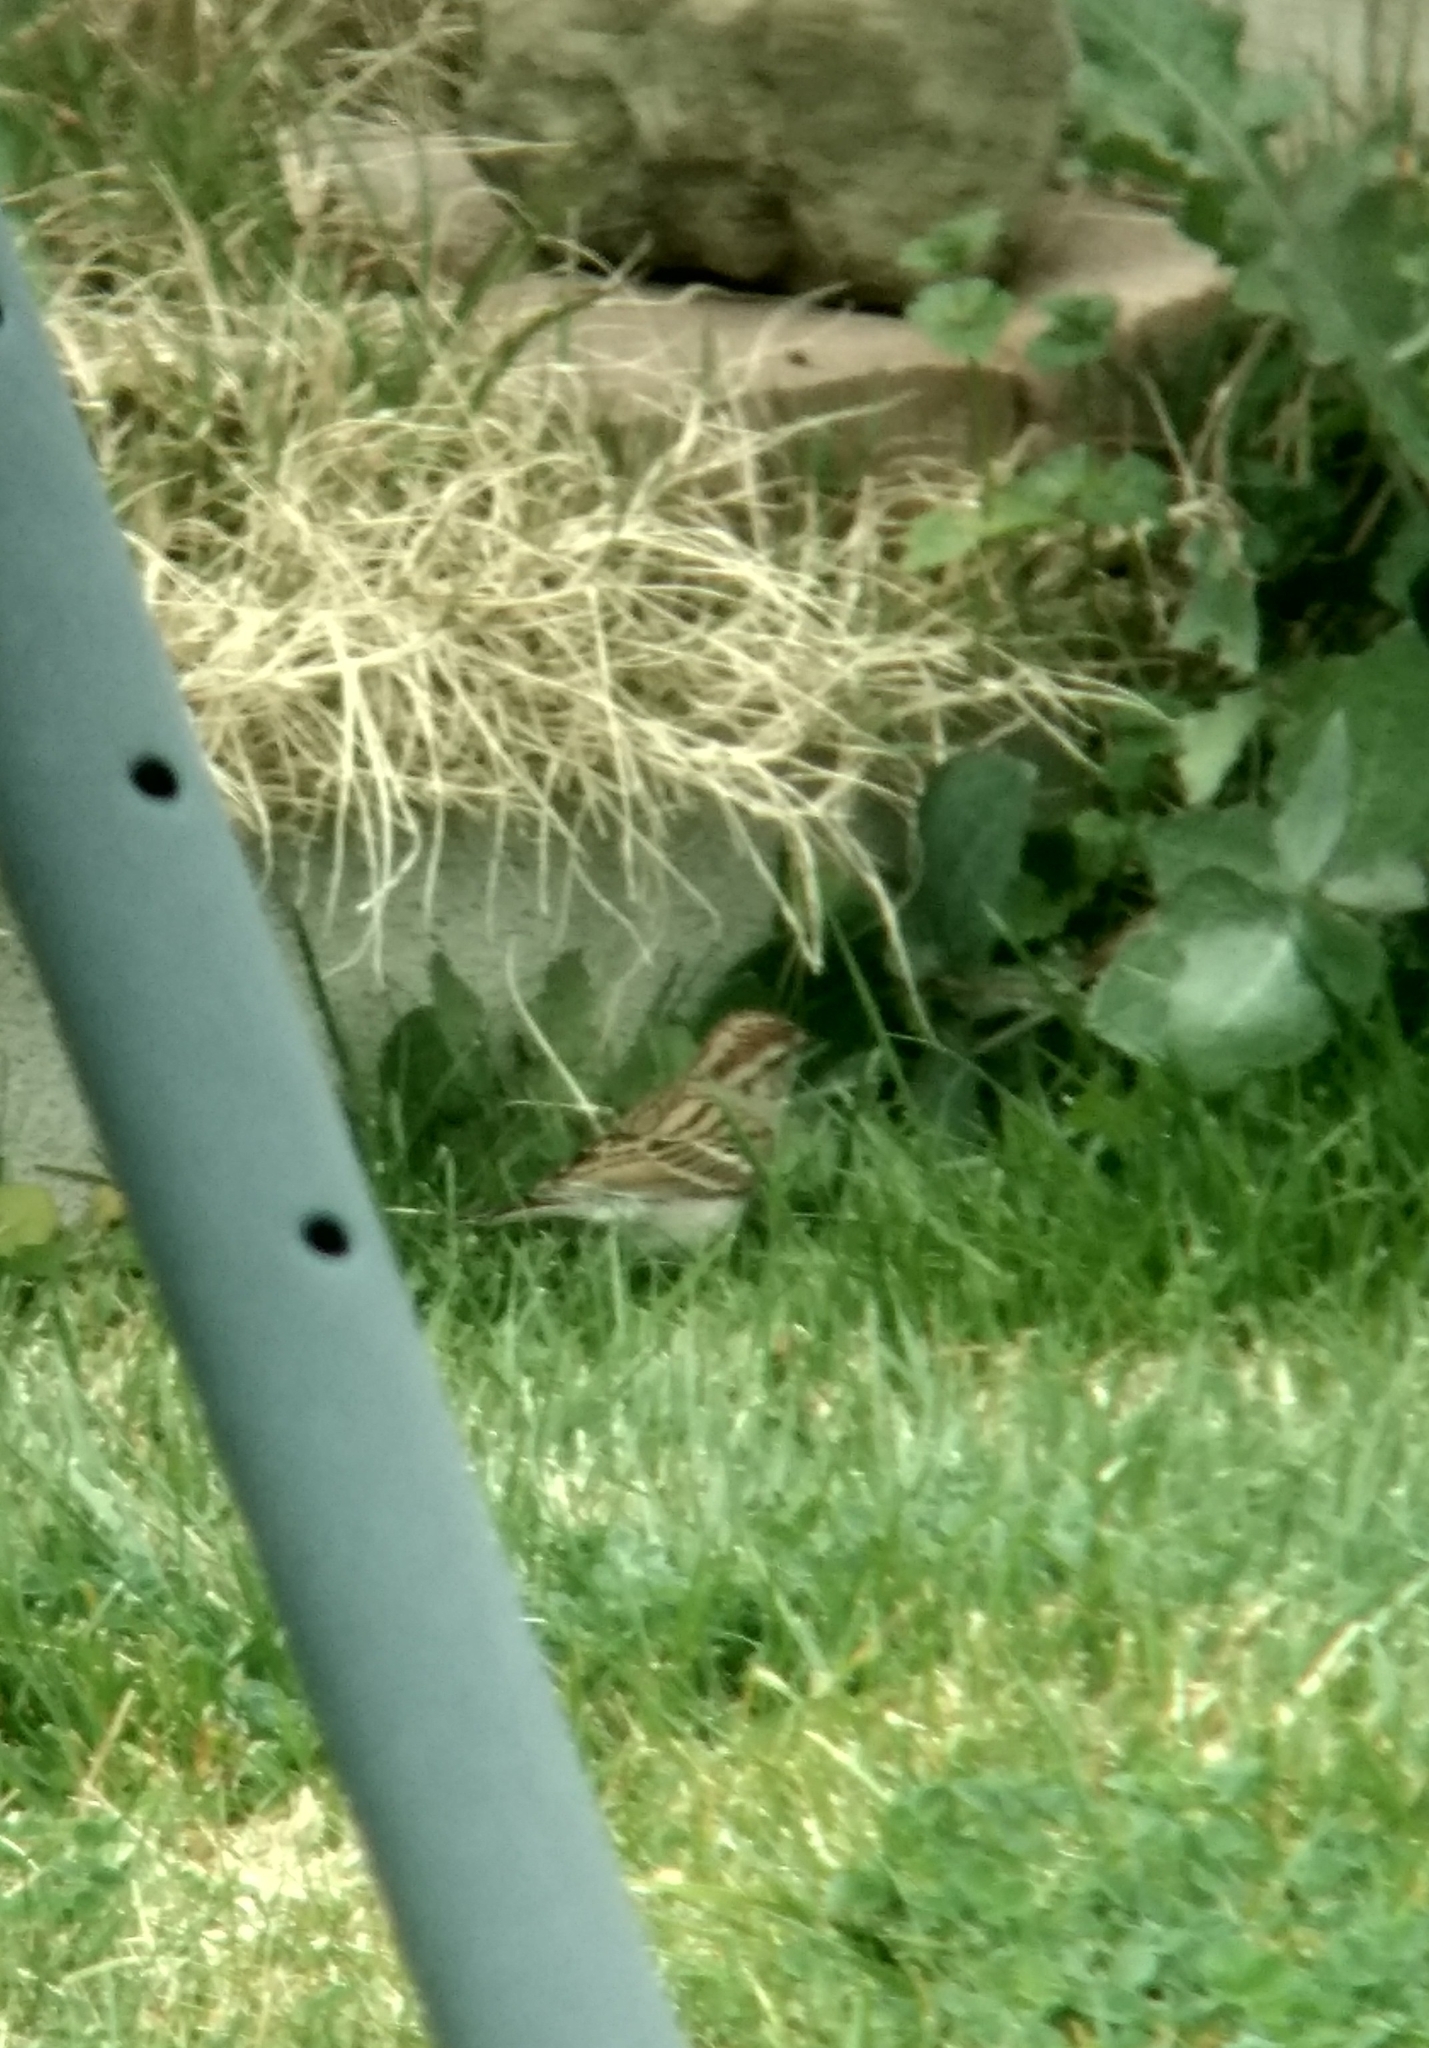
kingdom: Animalia
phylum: Chordata
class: Aves
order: Passeriformes
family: Passerellidae
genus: Spizella
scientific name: Spizella passerina
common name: Chipping sparrow
